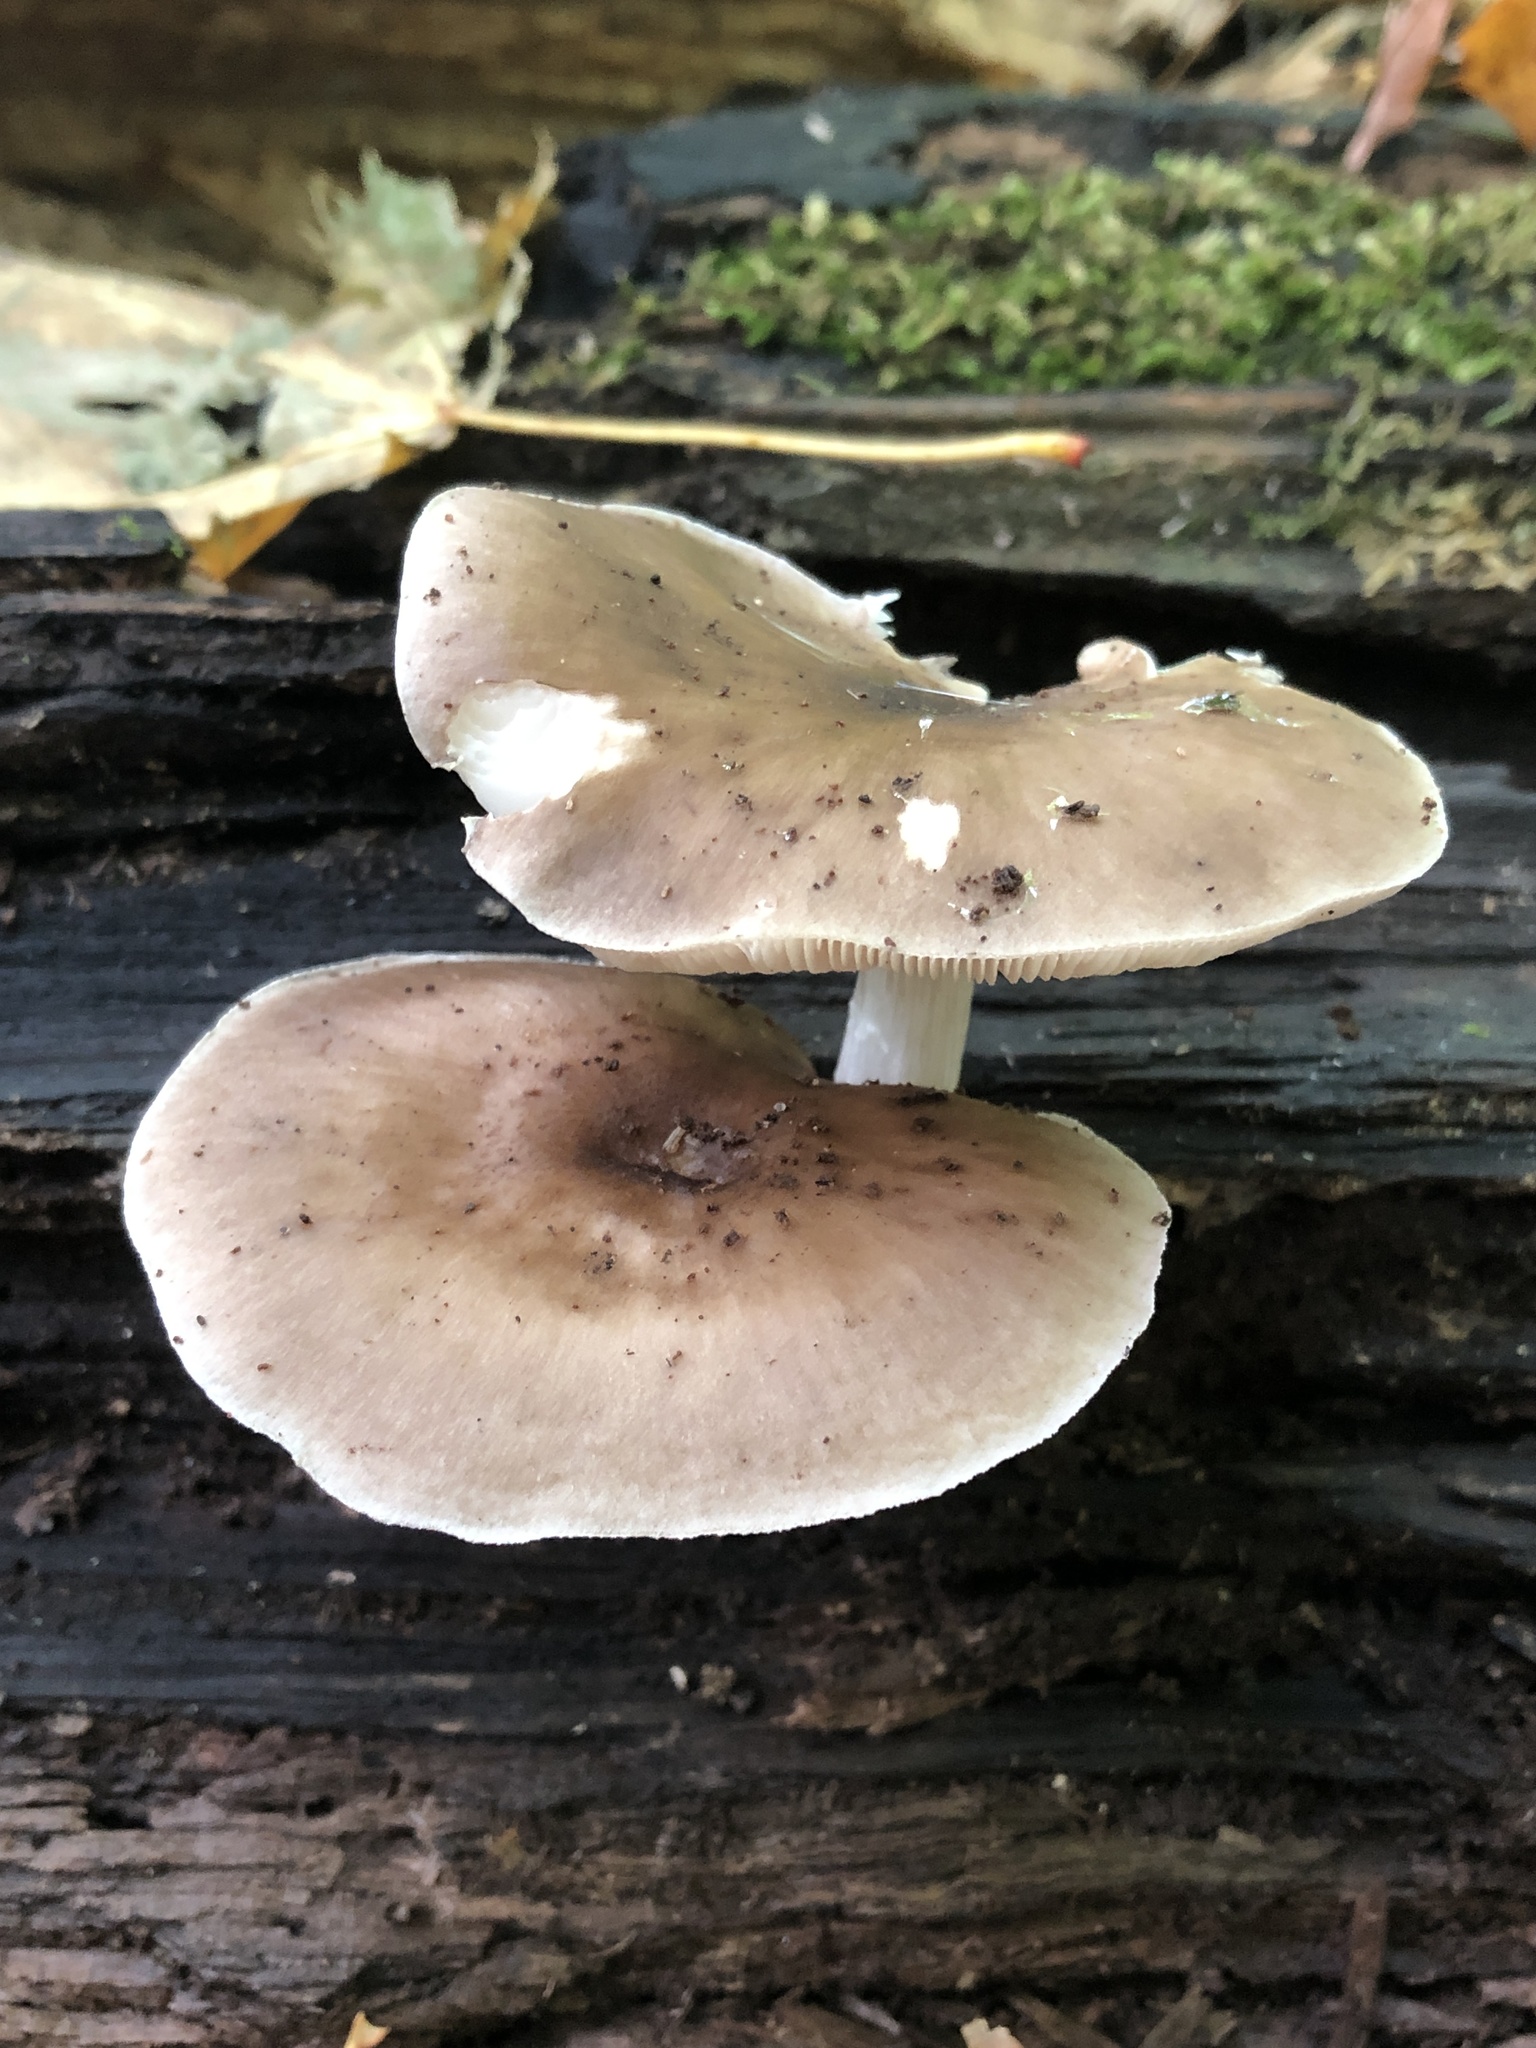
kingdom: Fungi
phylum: Basidiomycota
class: Agaricomycetes
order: Agaricales
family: Pluteaceae
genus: Pluteus
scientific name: Pluteus cervinus
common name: Deer shield
